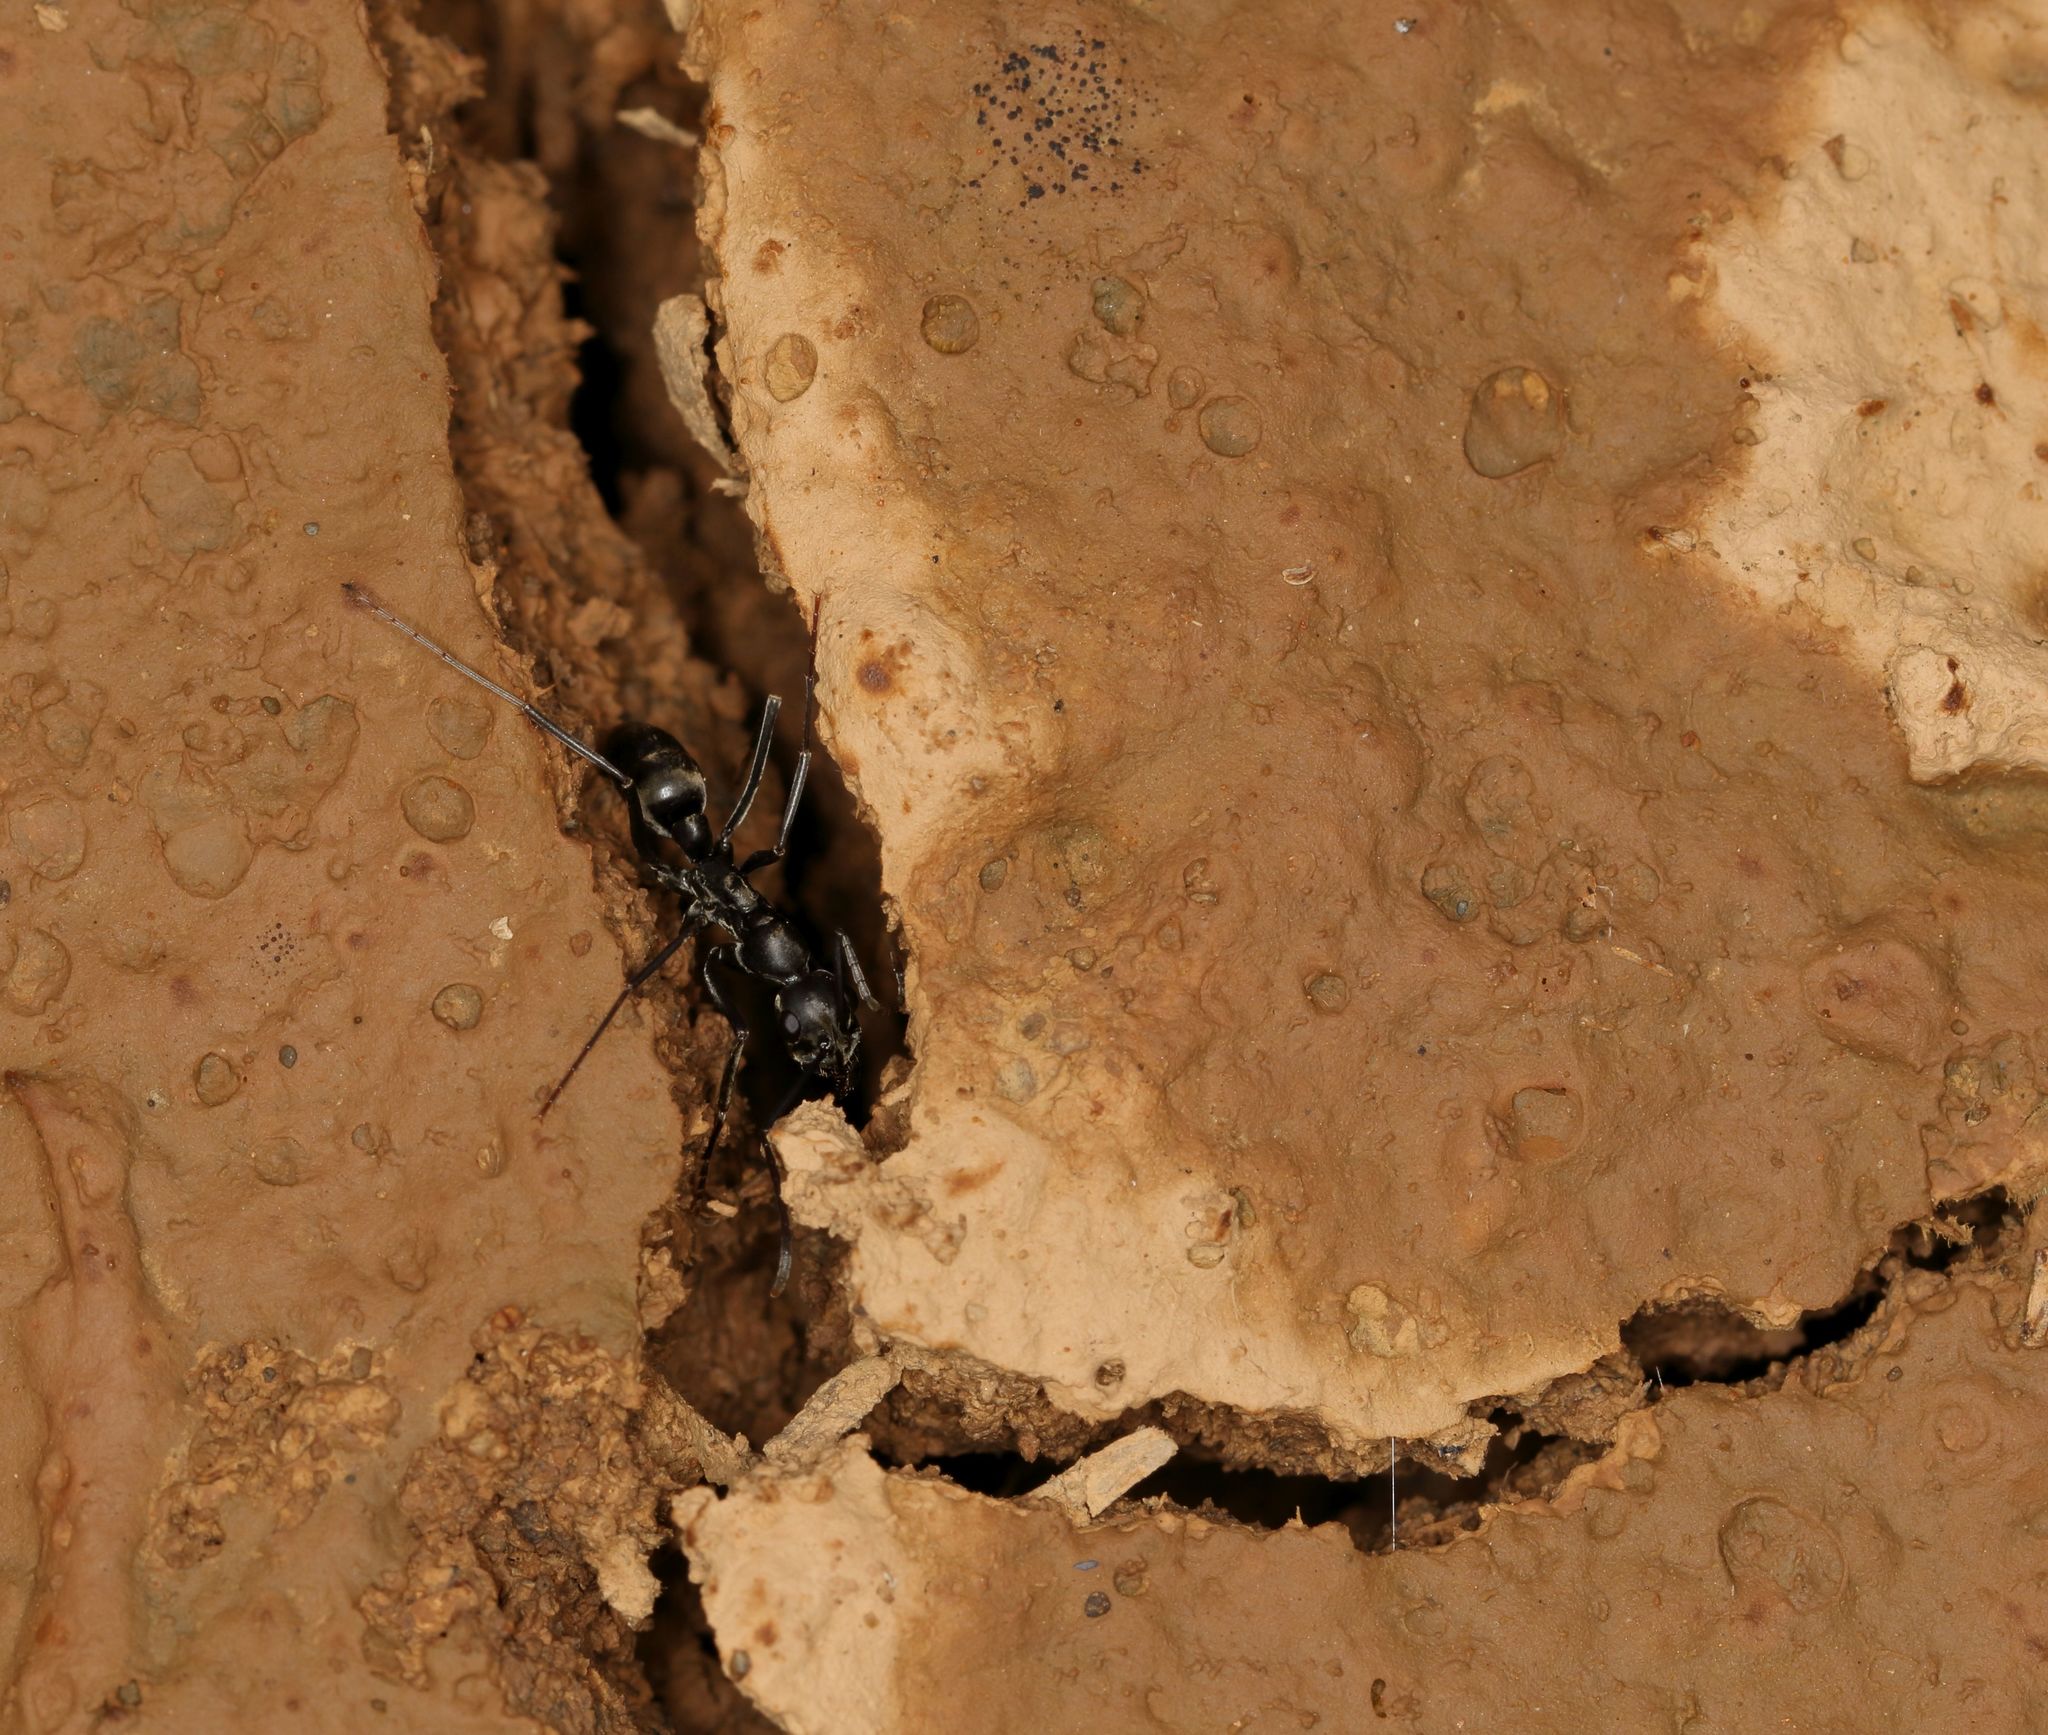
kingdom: Animalia
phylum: Arthropoda
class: Insecta
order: Hymenoptera
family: Formicidae
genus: Ophthalmopone
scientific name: Ophthalmopone
